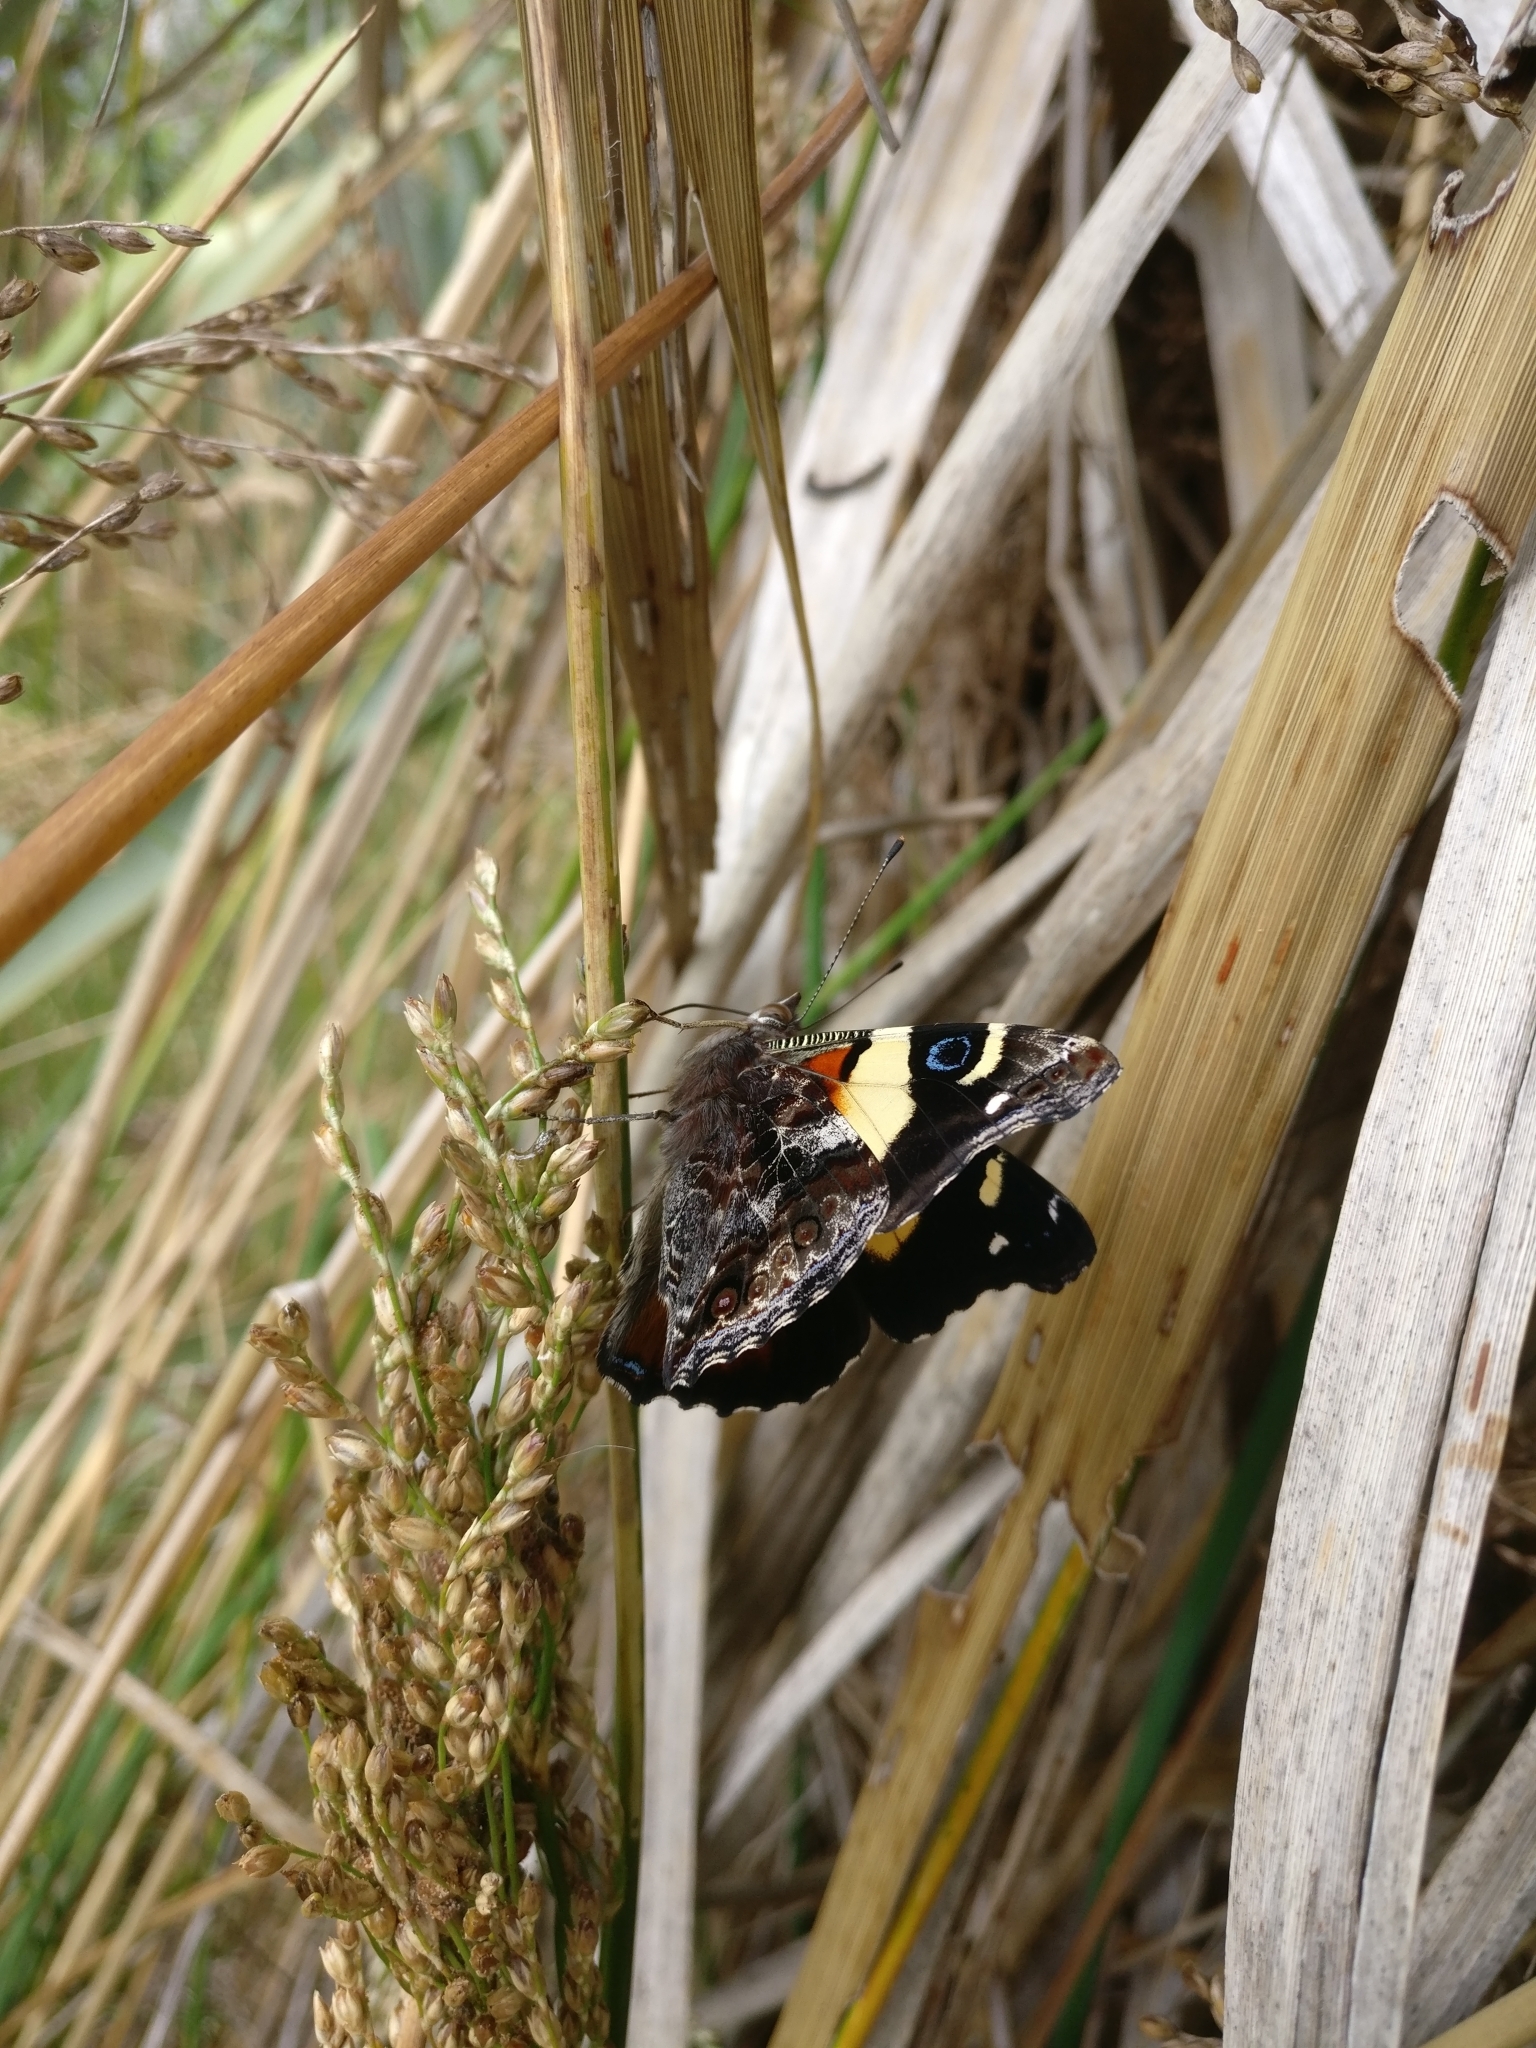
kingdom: Animalia
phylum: Arthropoda
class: Insecta
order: Lepidoptera
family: Nymphalidae
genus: Vanessa
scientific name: Vanessa itea
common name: Yellow admiral
